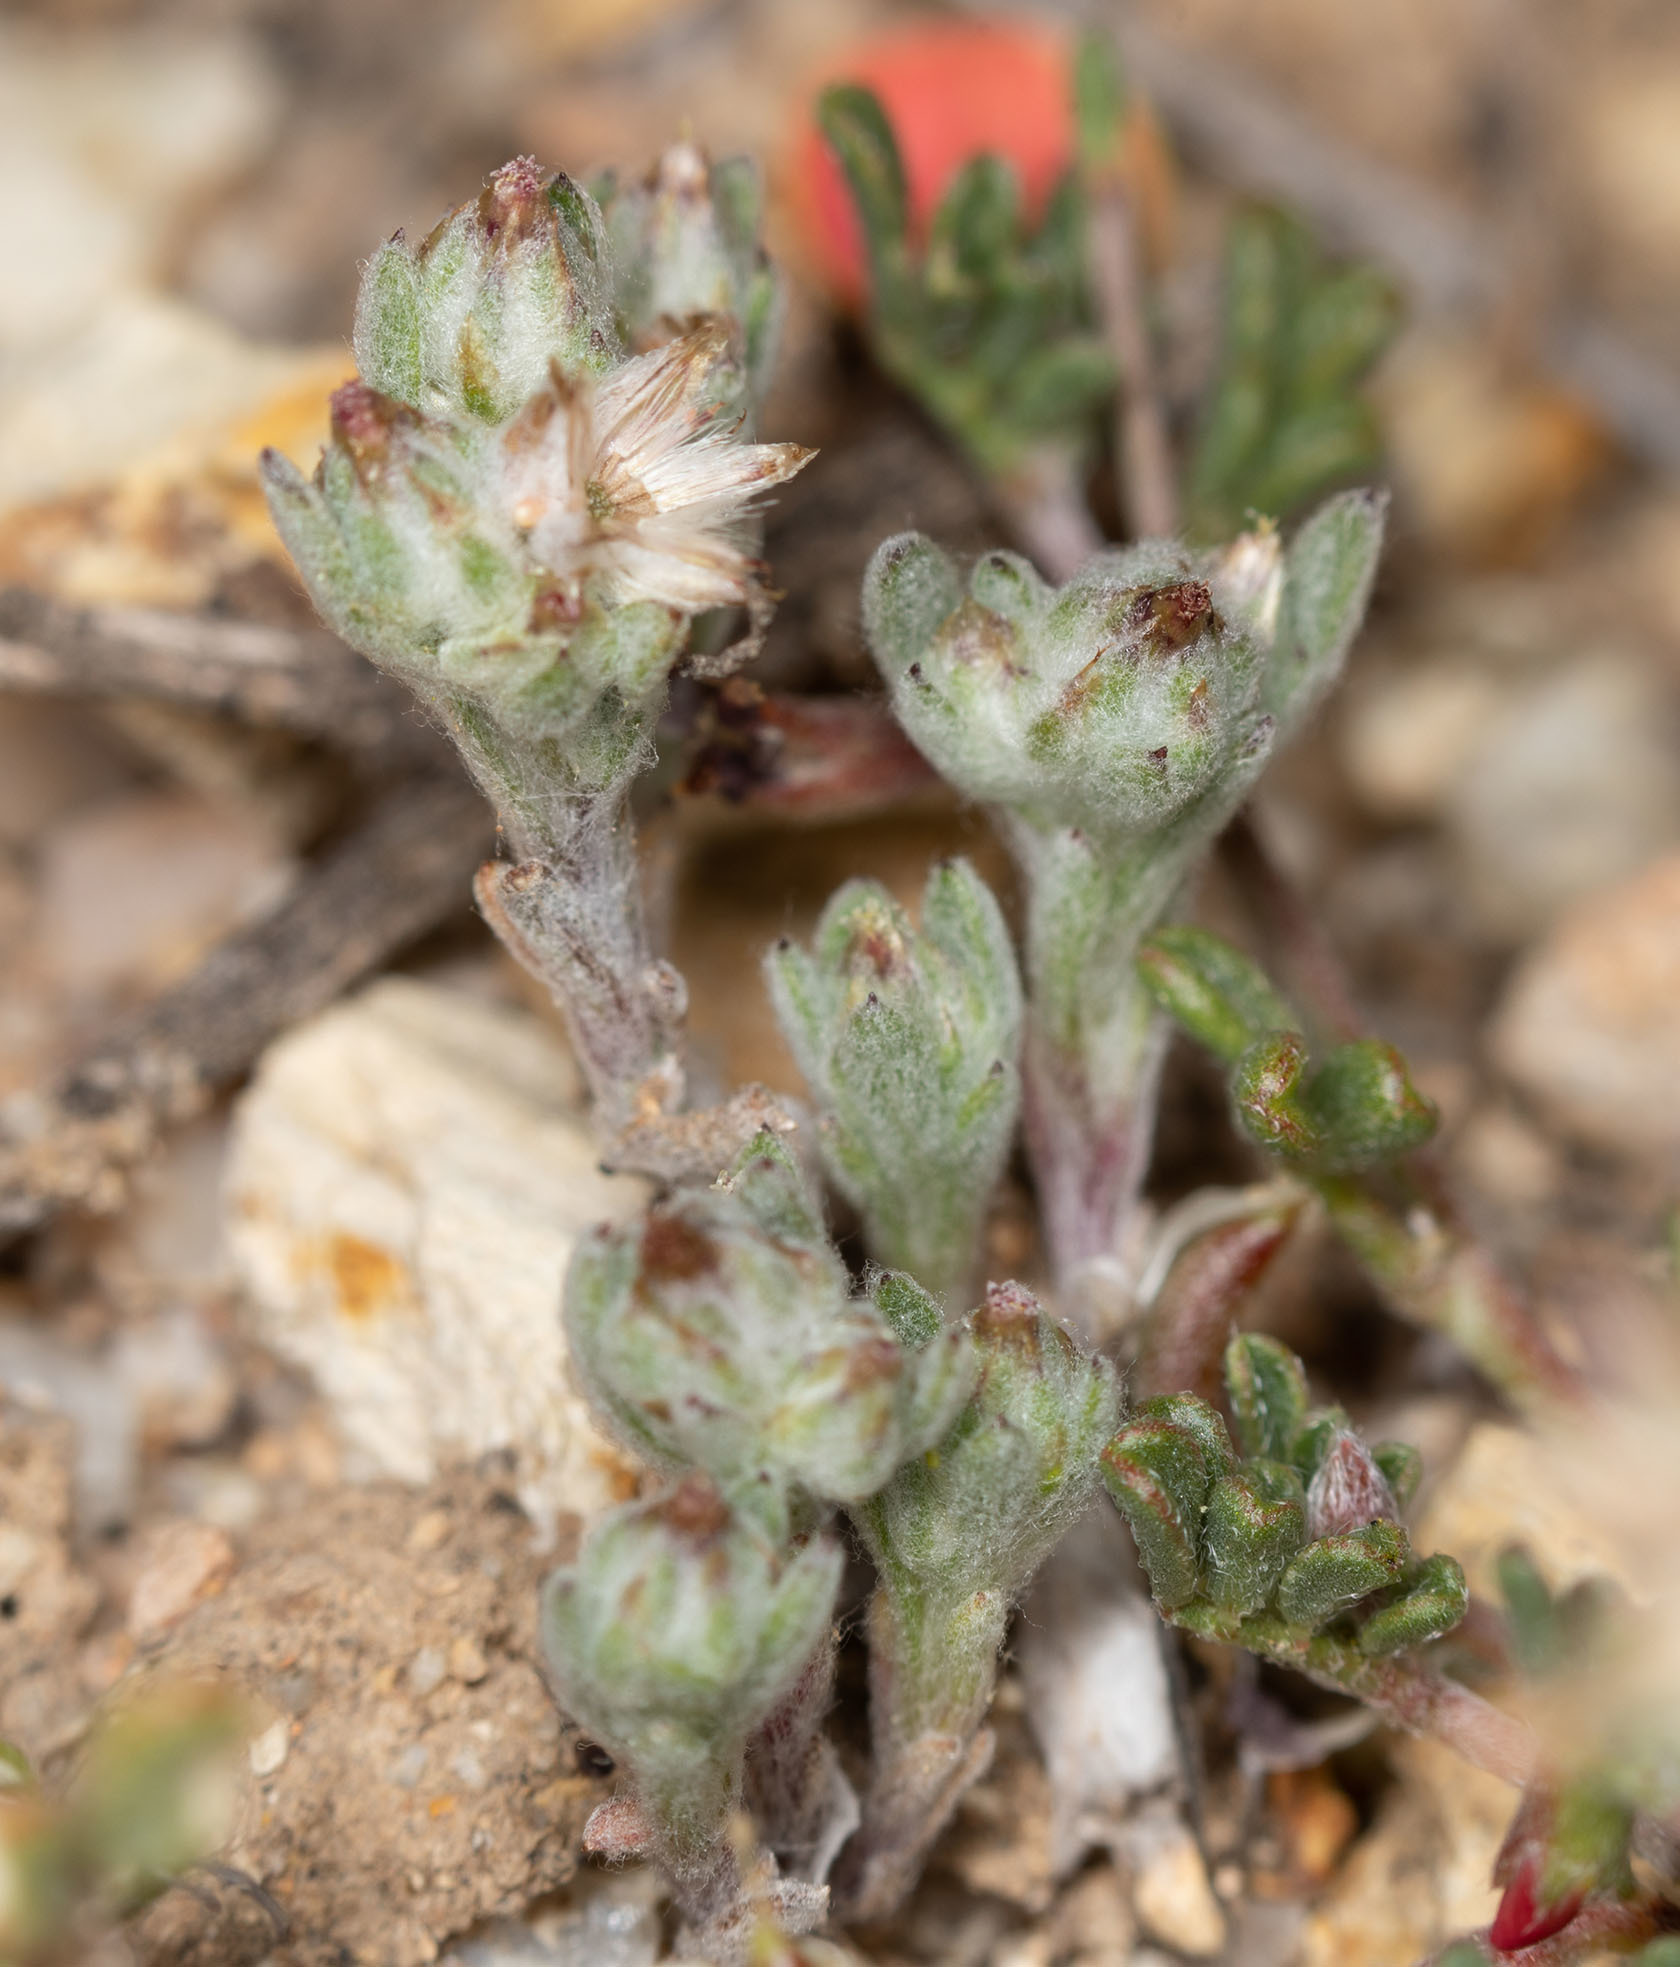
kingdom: Plantae
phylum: Tracheophyta
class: Magnoliopsida
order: Asterales
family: Asteraceae
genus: Logfia
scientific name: Logfia californica
